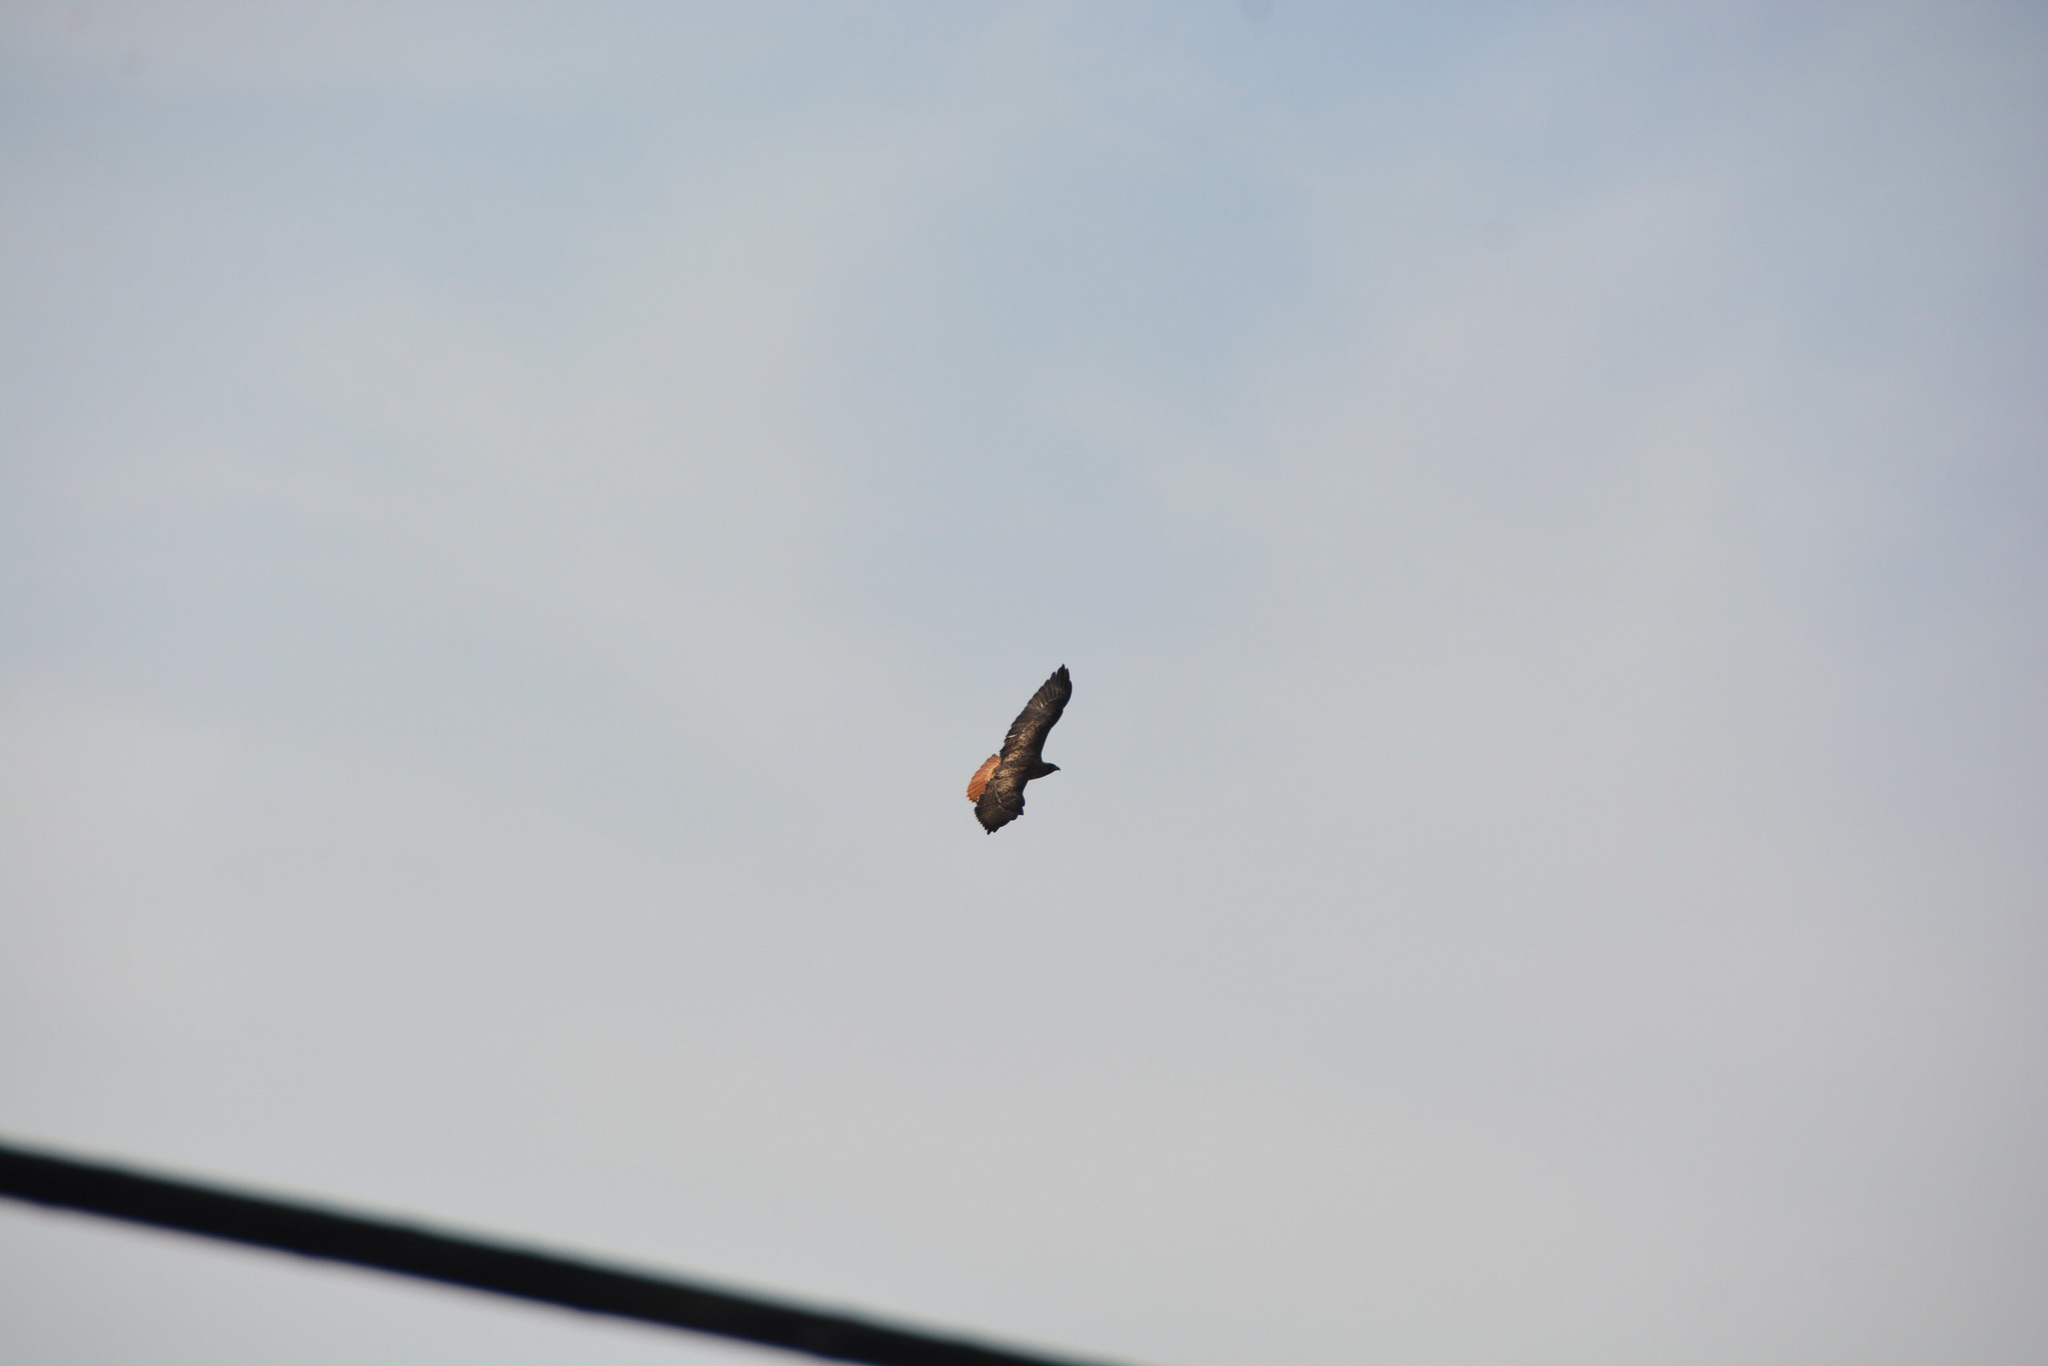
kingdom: Animalia
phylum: Chordata
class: Aves
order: Accipitriformes
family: Accipitridae
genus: Buteo
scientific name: Buteo jamaicensis
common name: Red-tailed hawk
